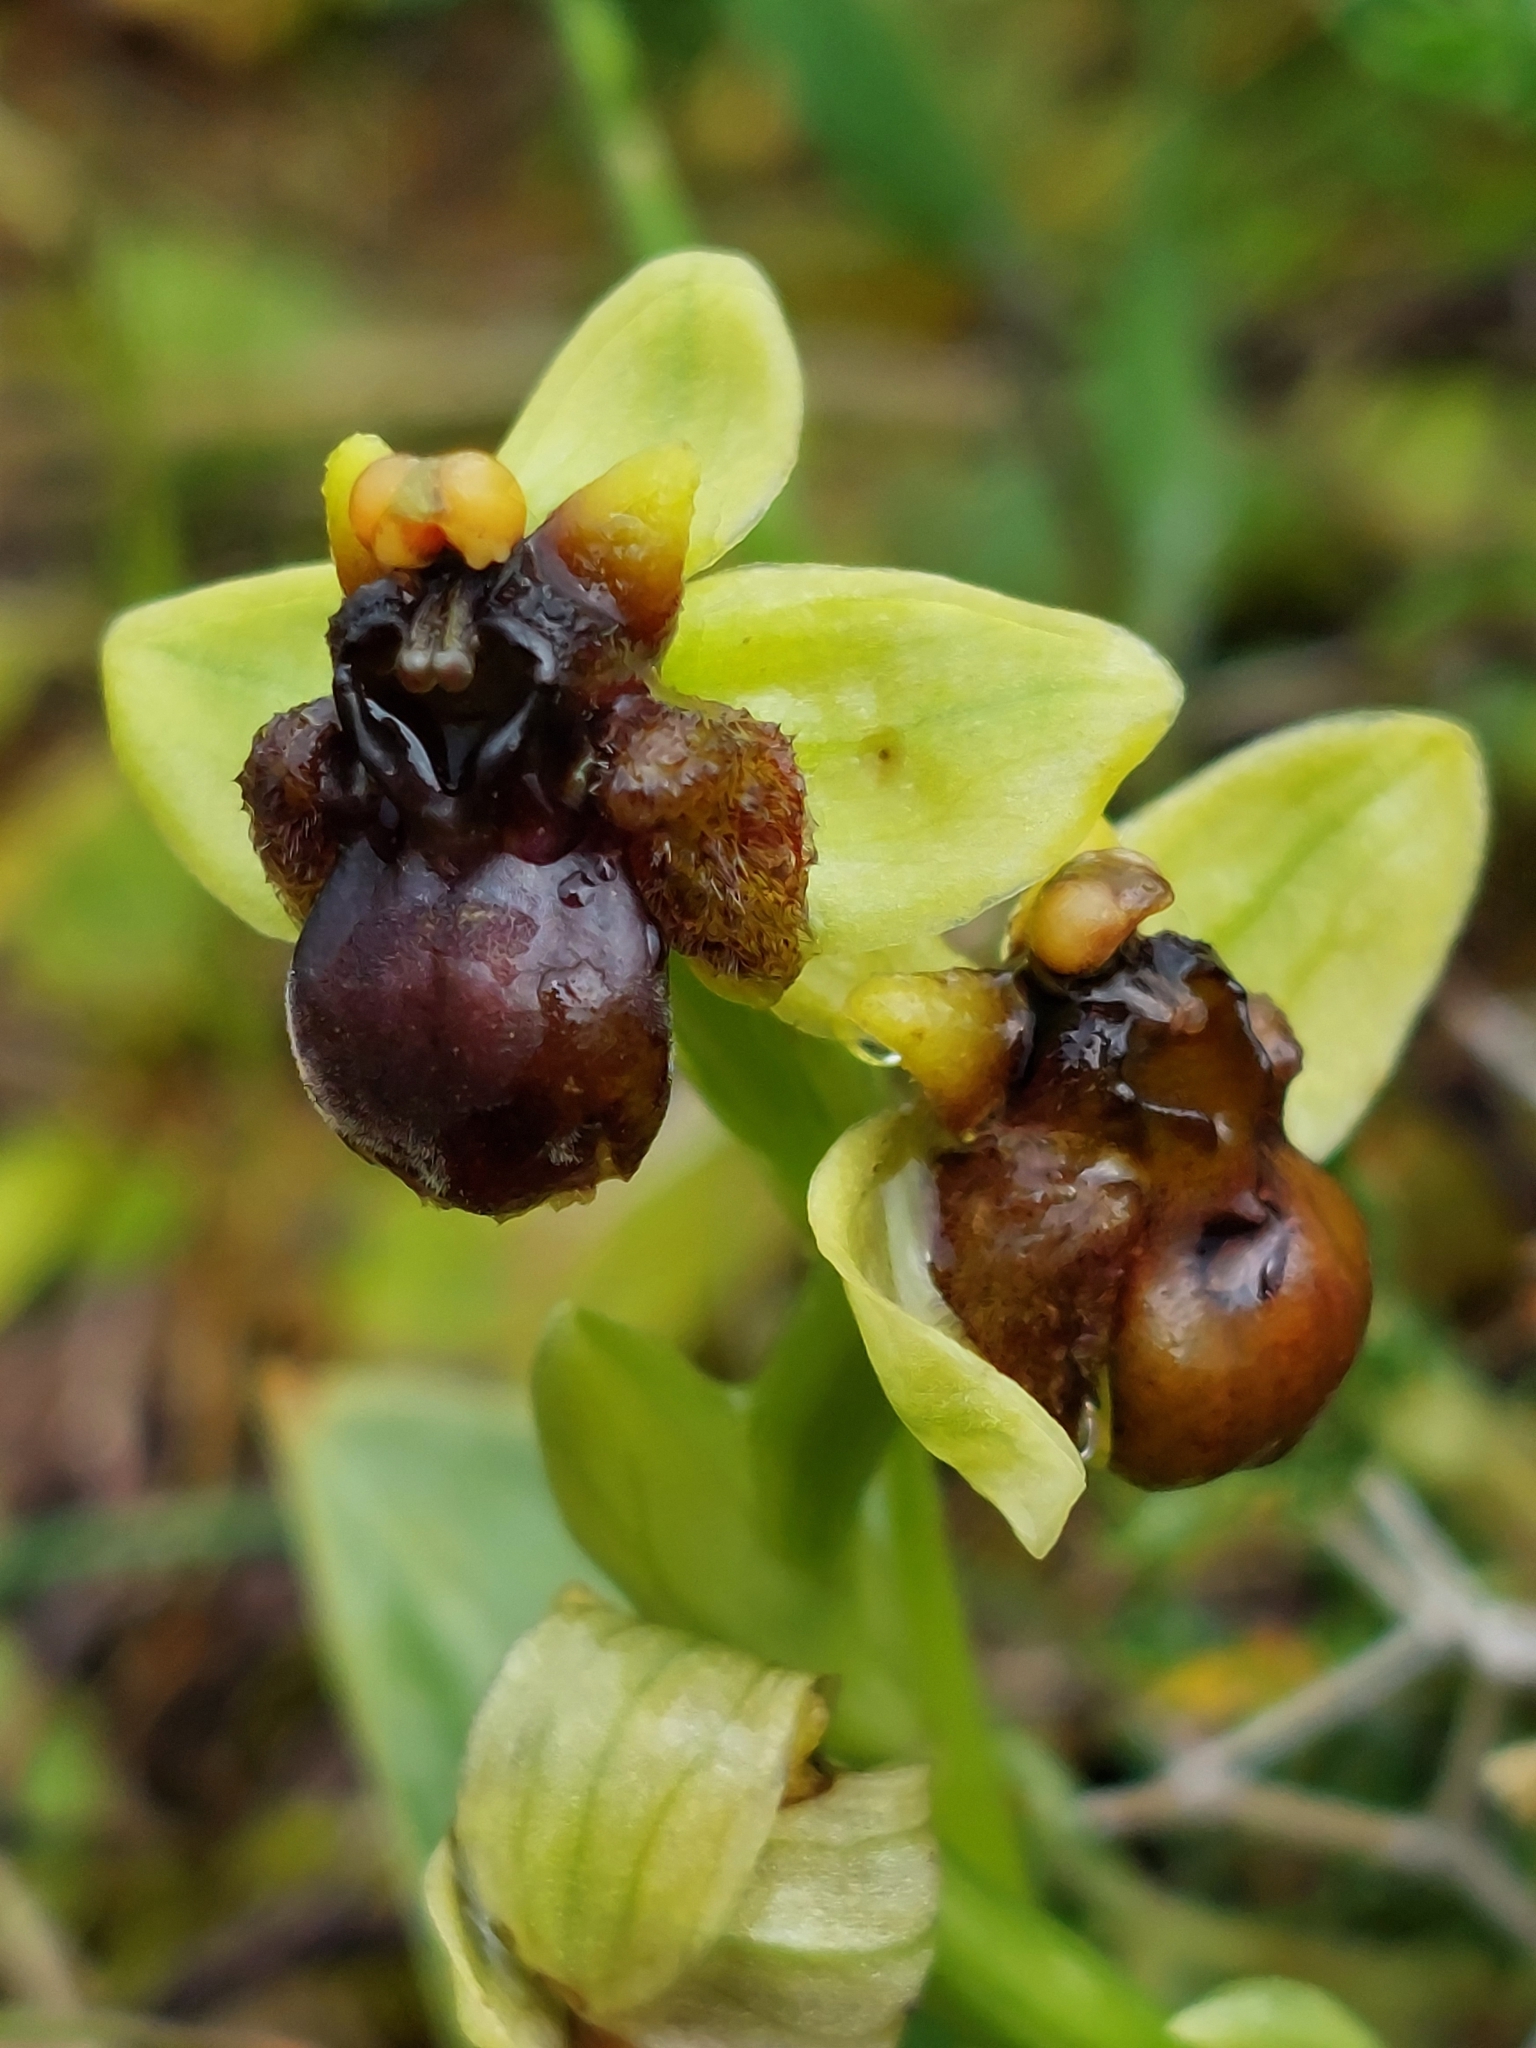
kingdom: Plantae
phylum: Tracheophyta
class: Liliopsida
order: Asparagales
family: Orchidaceae
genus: Ophrys
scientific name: Ophrys bombyliflora
